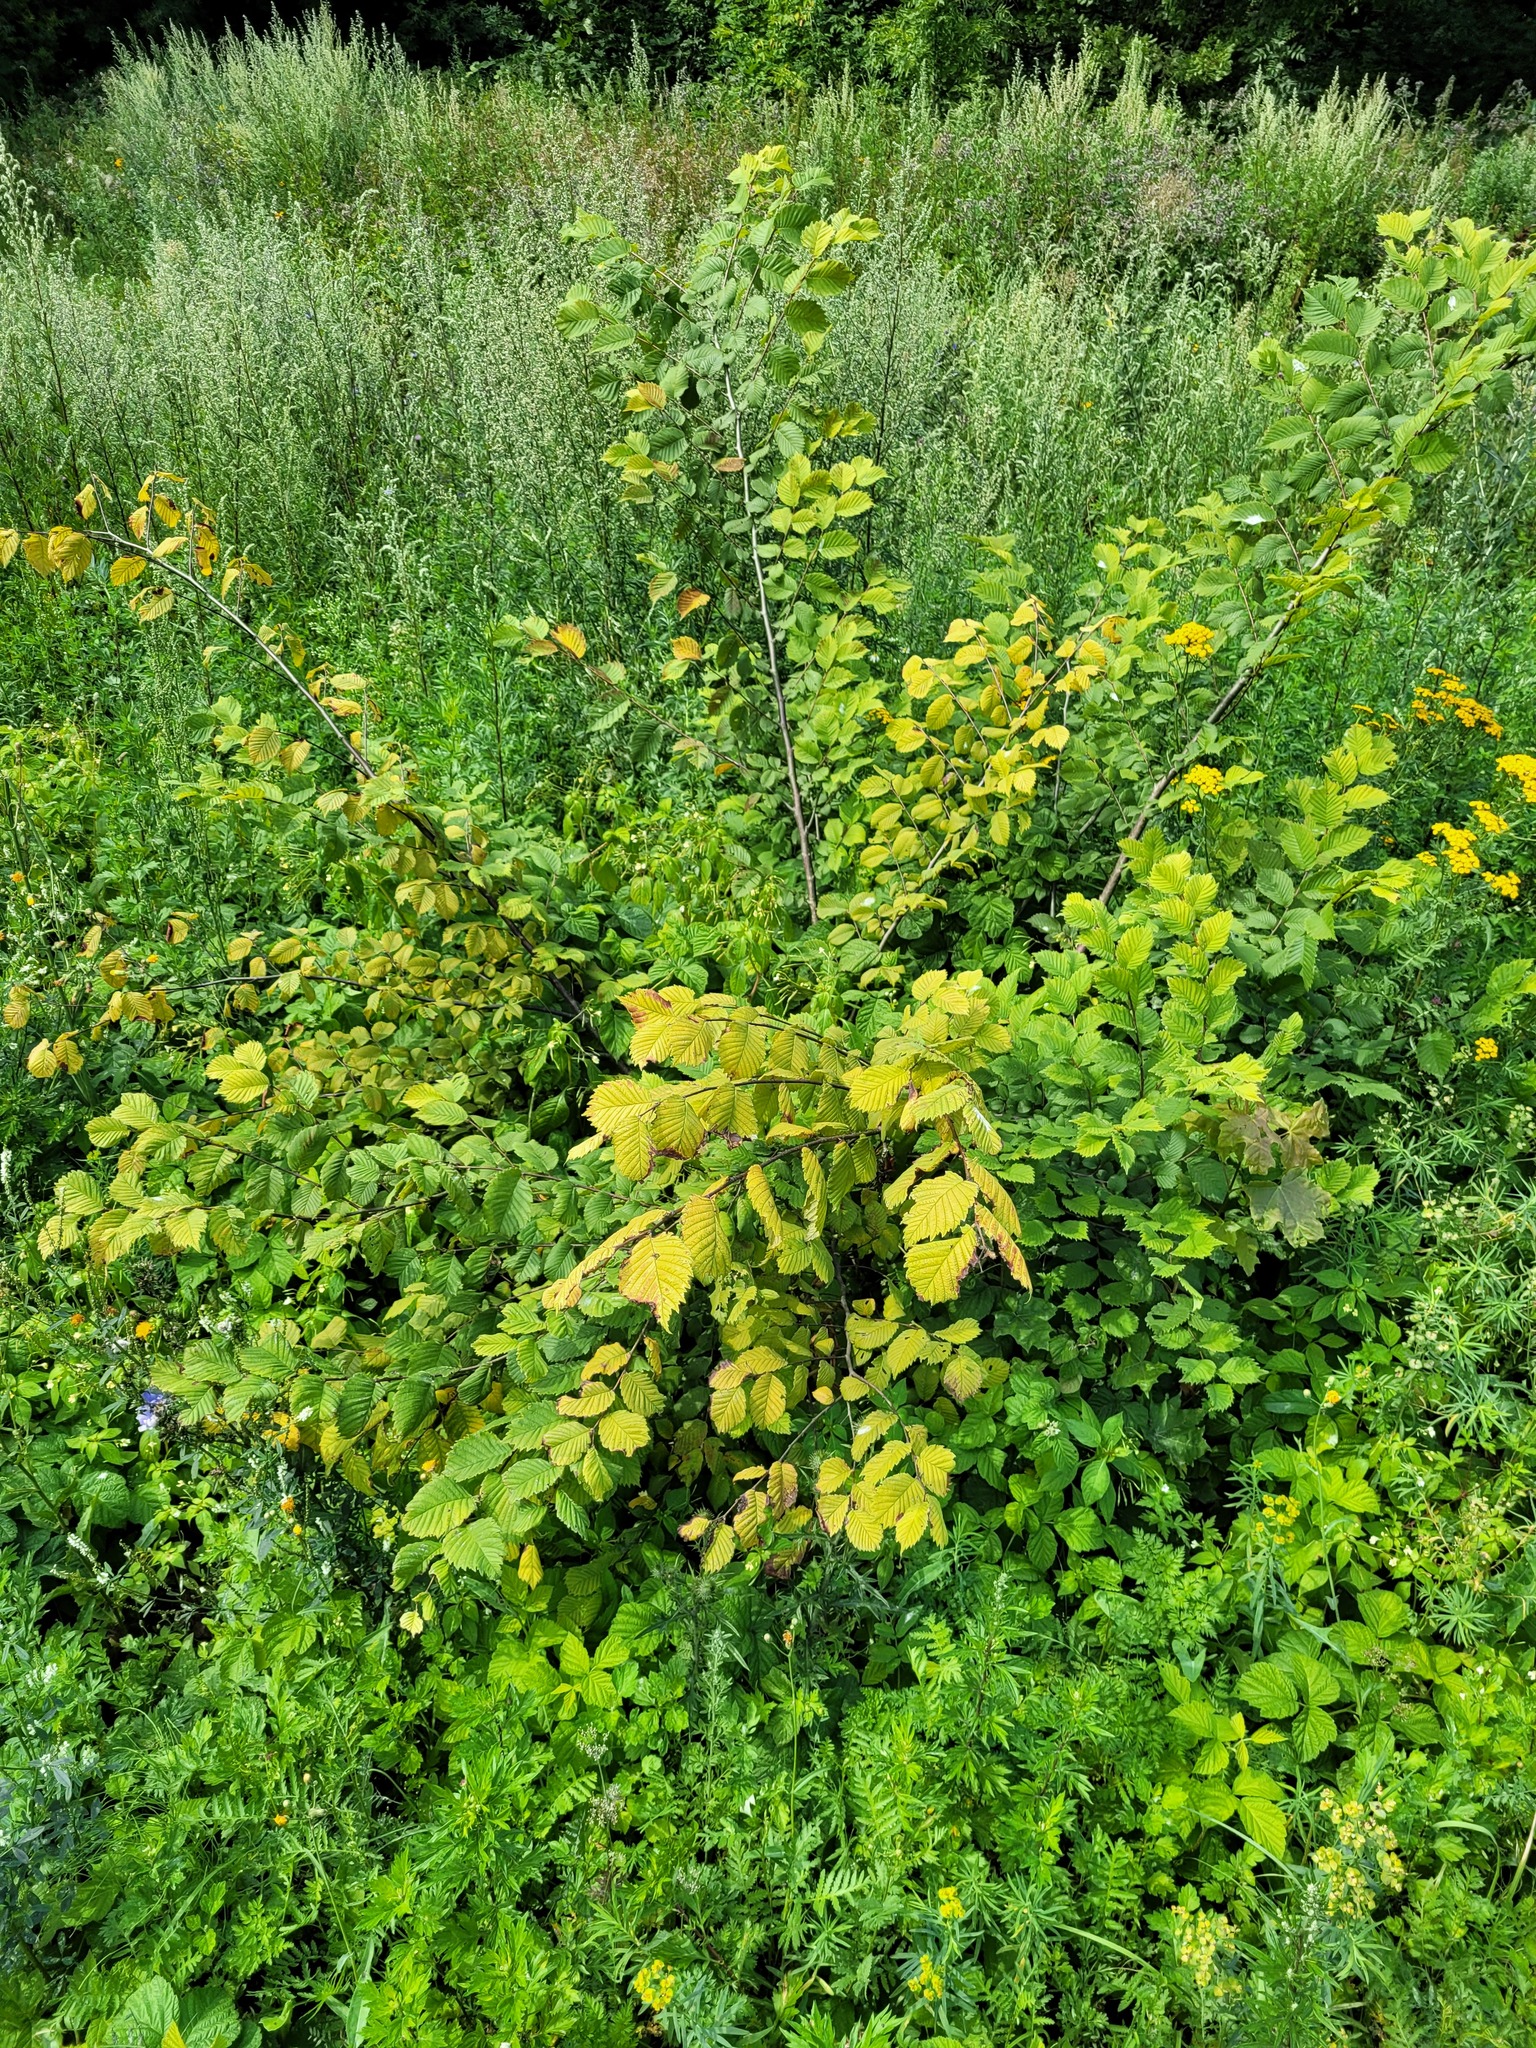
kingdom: Plantae
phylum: Tracheophyta
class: Magnoliopsida
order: Rosales
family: Ulmaceae
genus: Ulmus
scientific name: Ulmus laevis
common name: European white-elm
